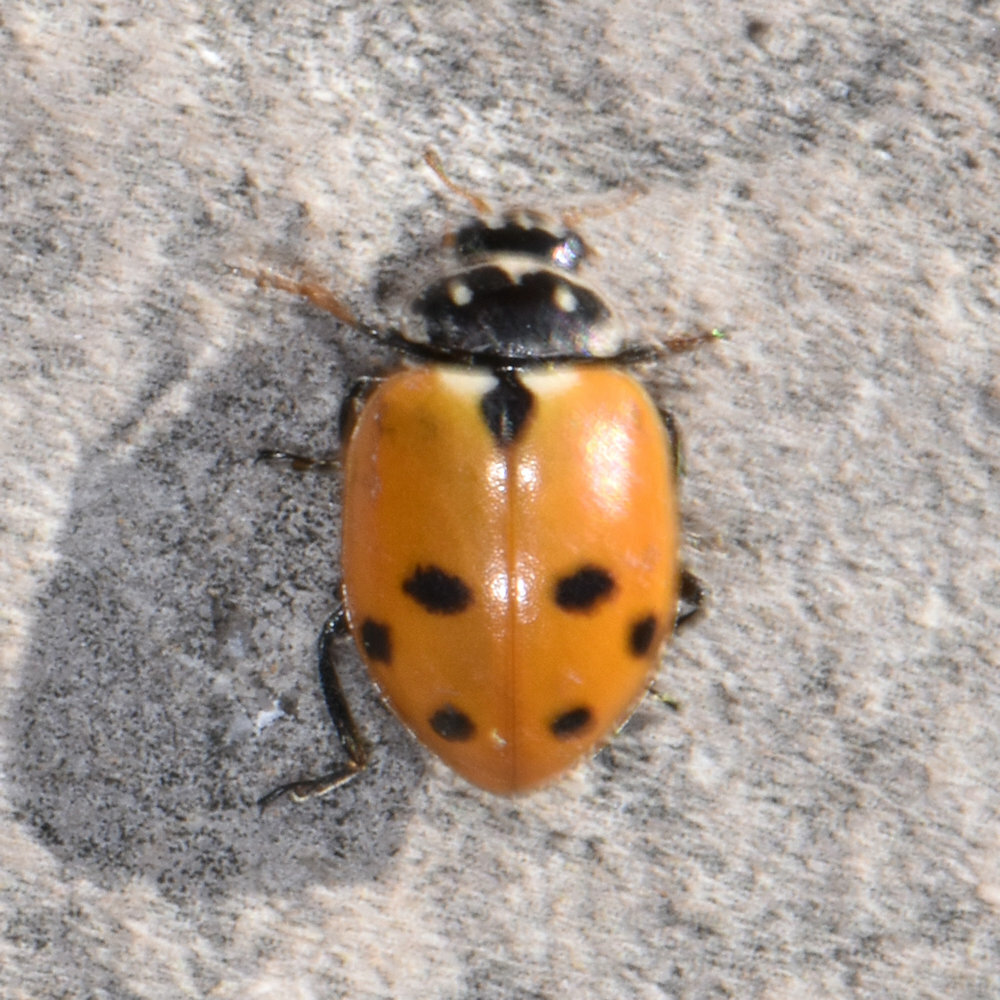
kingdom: Animalia
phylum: Arthropoda
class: Insecta
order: Coleoptera
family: Coccinellidae
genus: Hippodamia
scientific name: Hippodamia variegata
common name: Ladybird beetle
